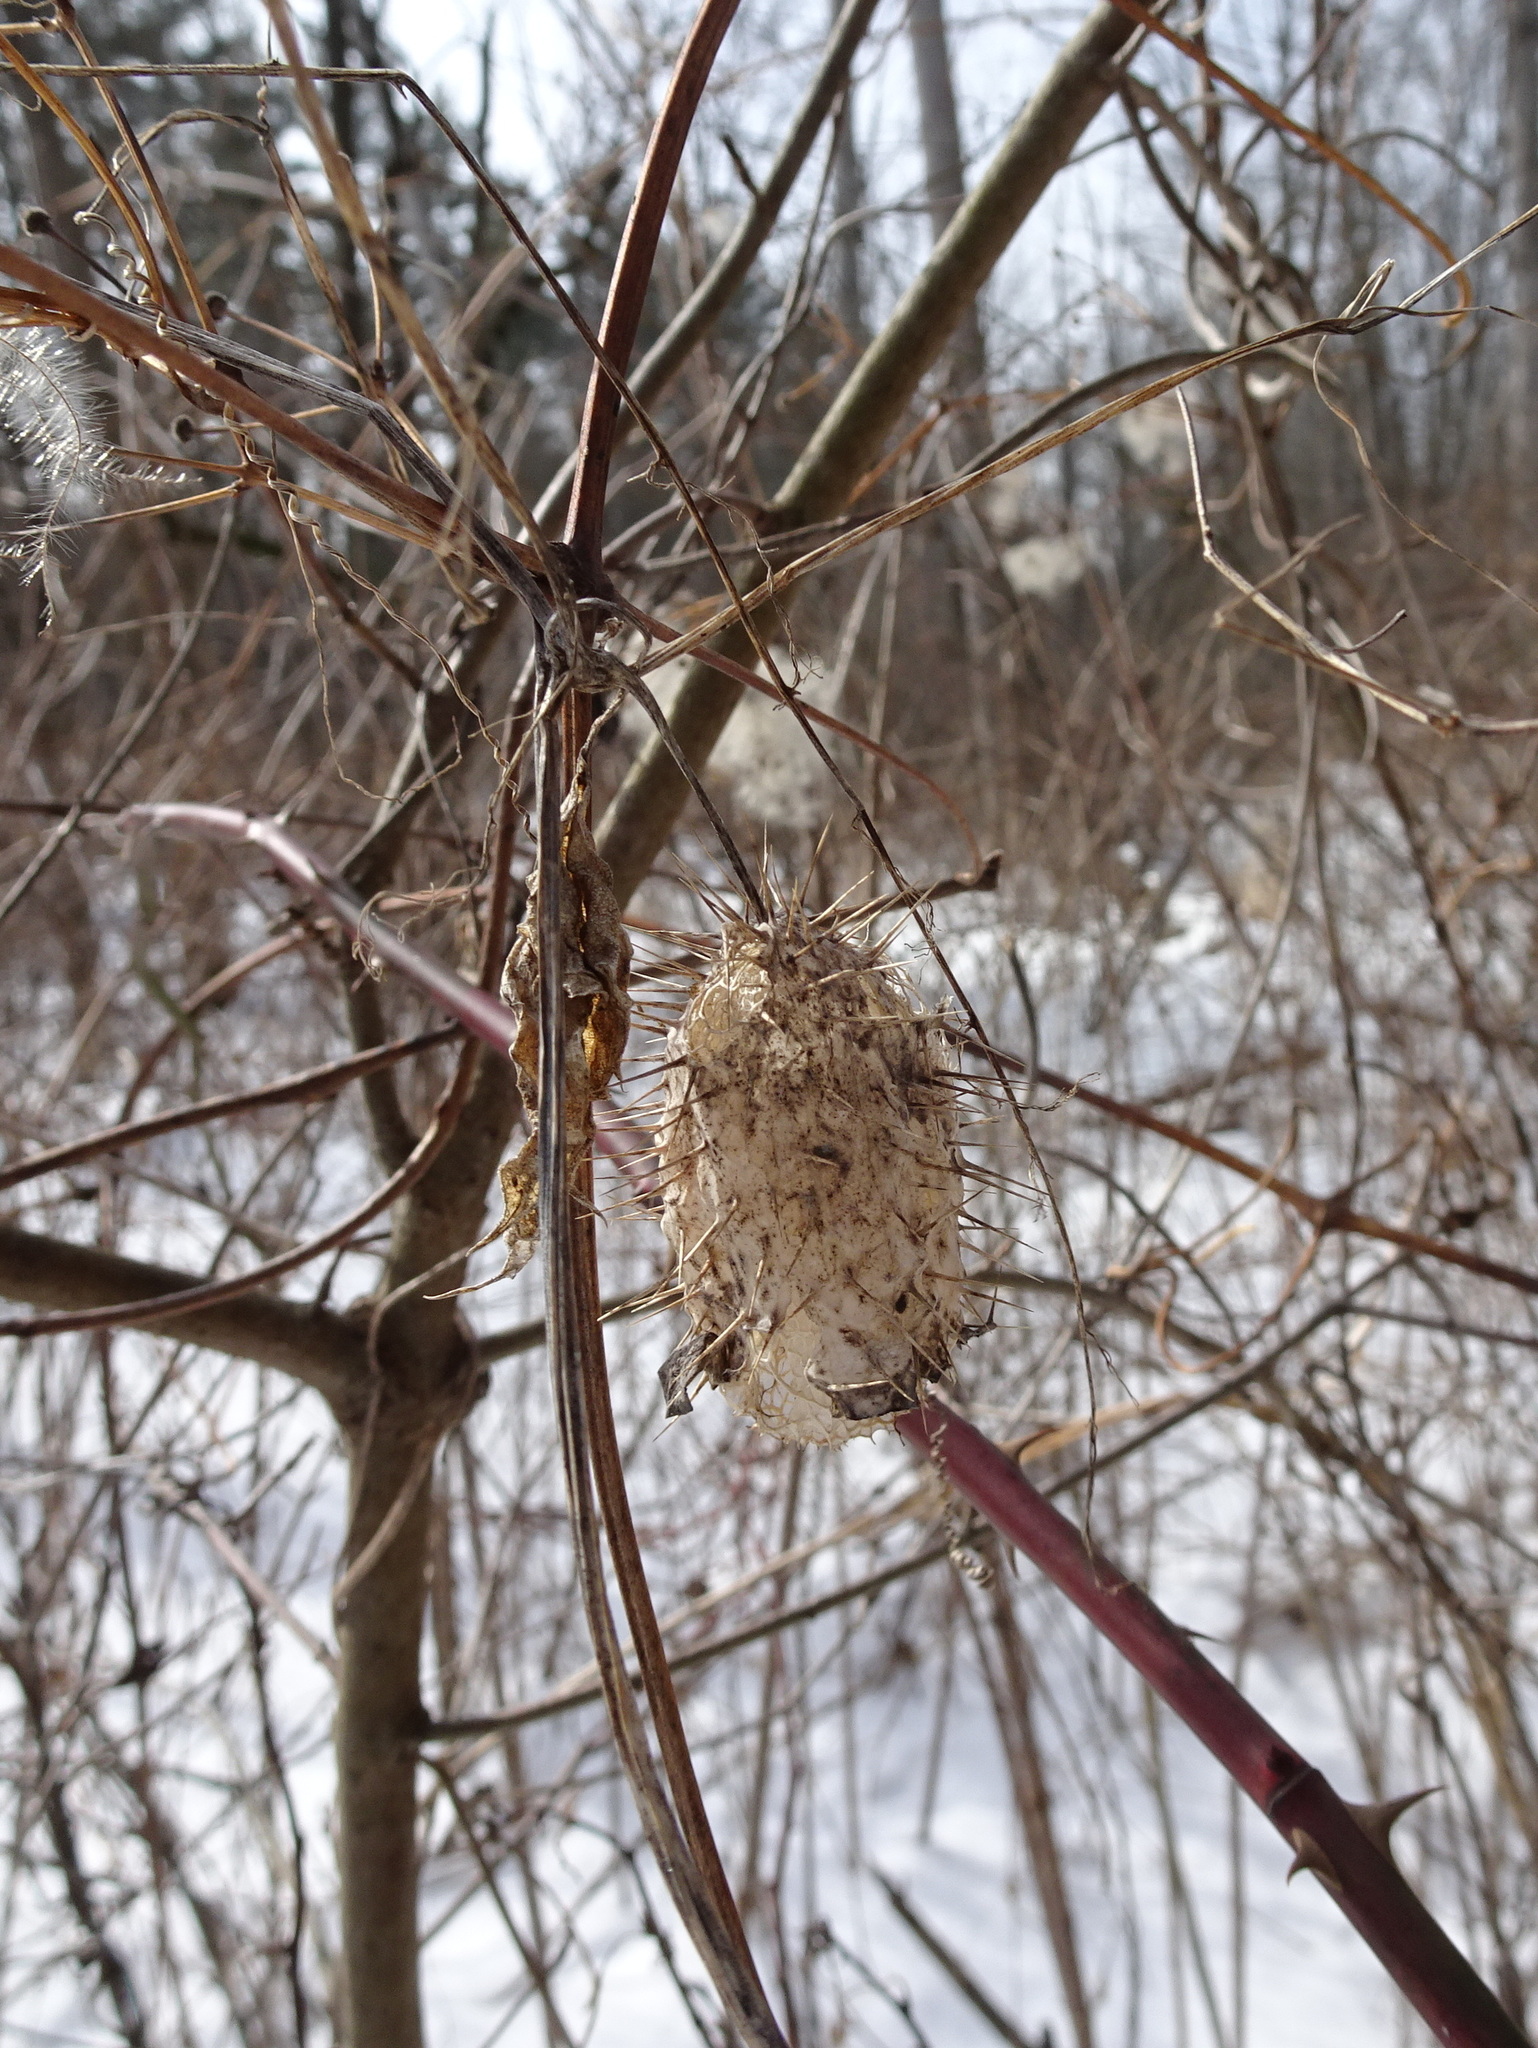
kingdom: Plantae
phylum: Tracheophyta
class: Magnoliopsida
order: Cucurbitales
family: Cucurbitaceae
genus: Echinocystis
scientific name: Echinocystis lobata
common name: Wild cucumber
